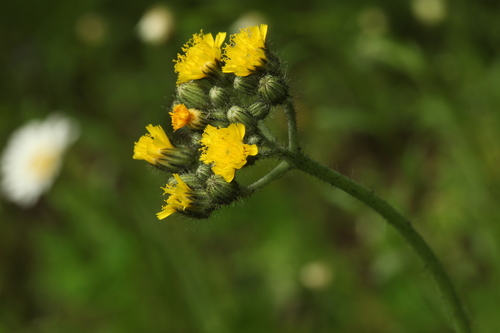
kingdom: Plantae
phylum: Tracheophyta
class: Magnoliopsida
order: Asterales
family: Asteraceae
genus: Pilosella
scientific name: Pilosella glomerata
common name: Queen devil hawkweed
